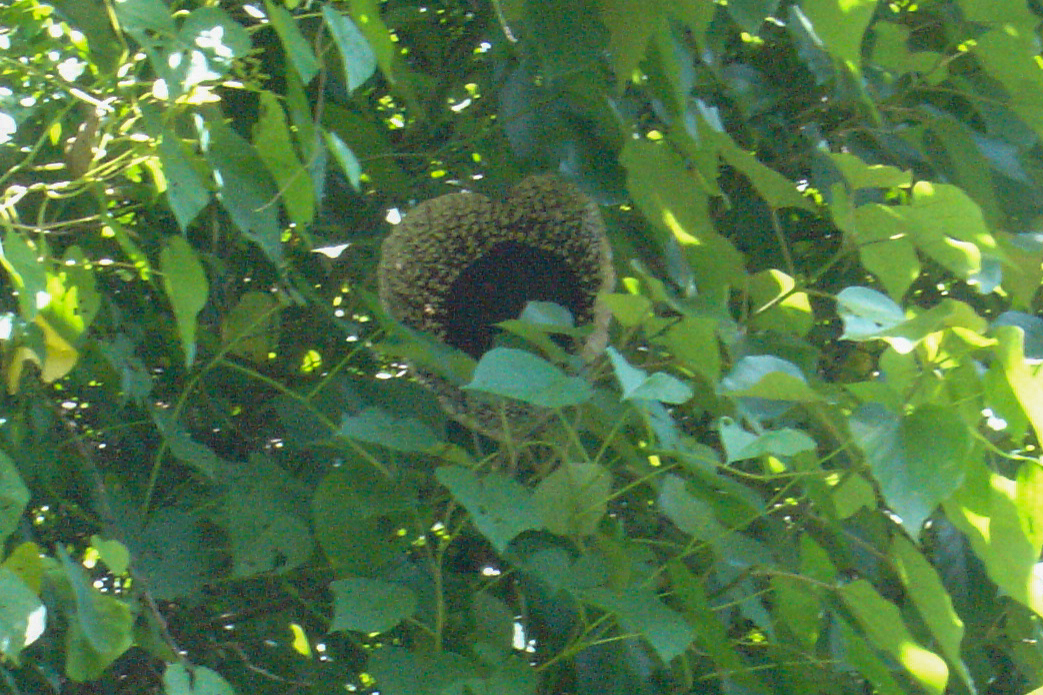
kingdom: Plantae
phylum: Tracheophyta
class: Magnoliopsida
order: Piperales
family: Aristolochiaceae
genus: Aristolochia
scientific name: Aristolochia grandiflora
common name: Pelicanflower
